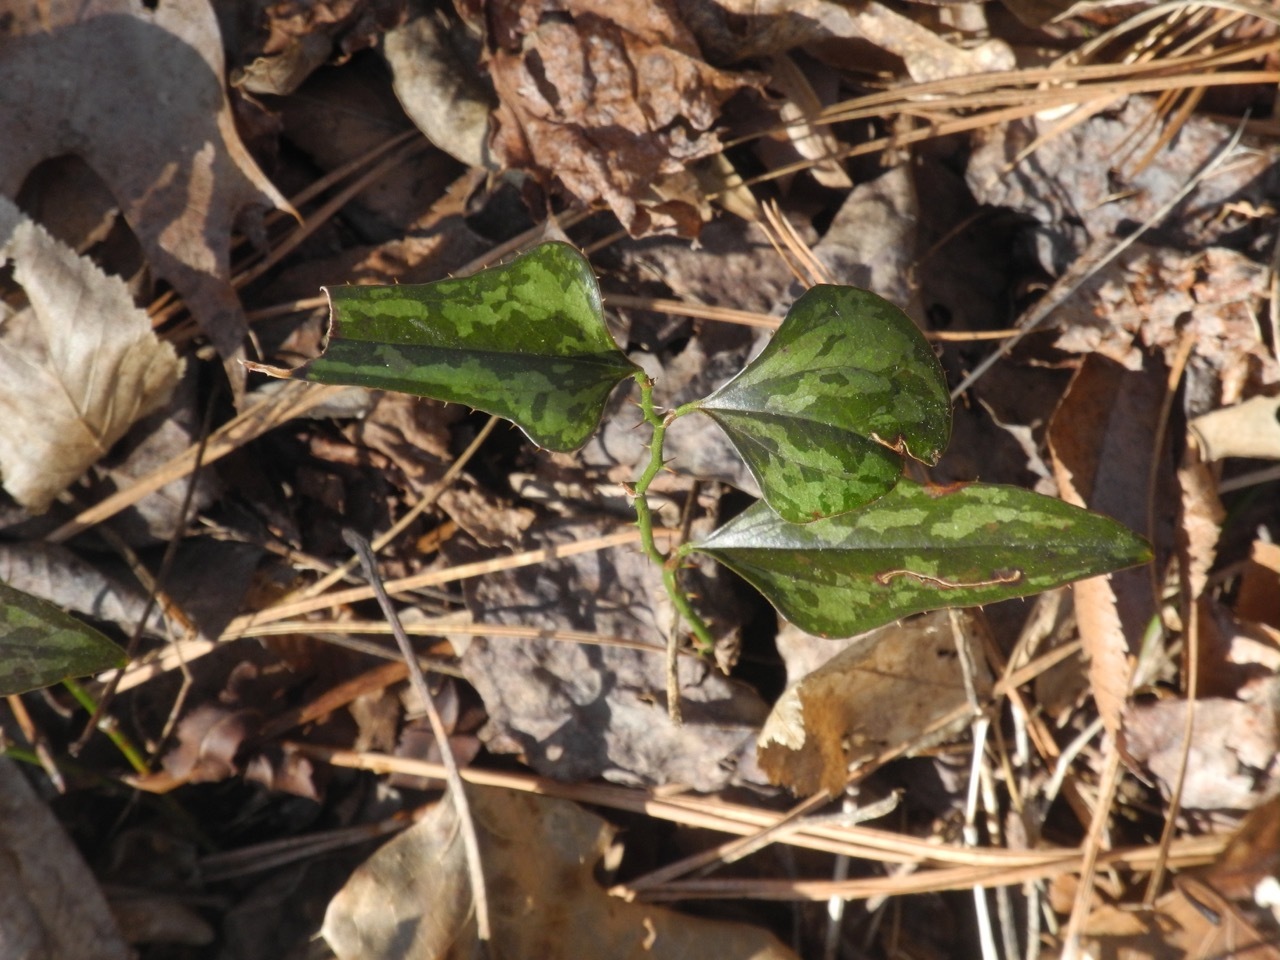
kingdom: Plantae
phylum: Tracheophyta
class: Liliopsida
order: Liliales
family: Smilacaceae
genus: Smilax
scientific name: Smilax bona-nox
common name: Catbrier
